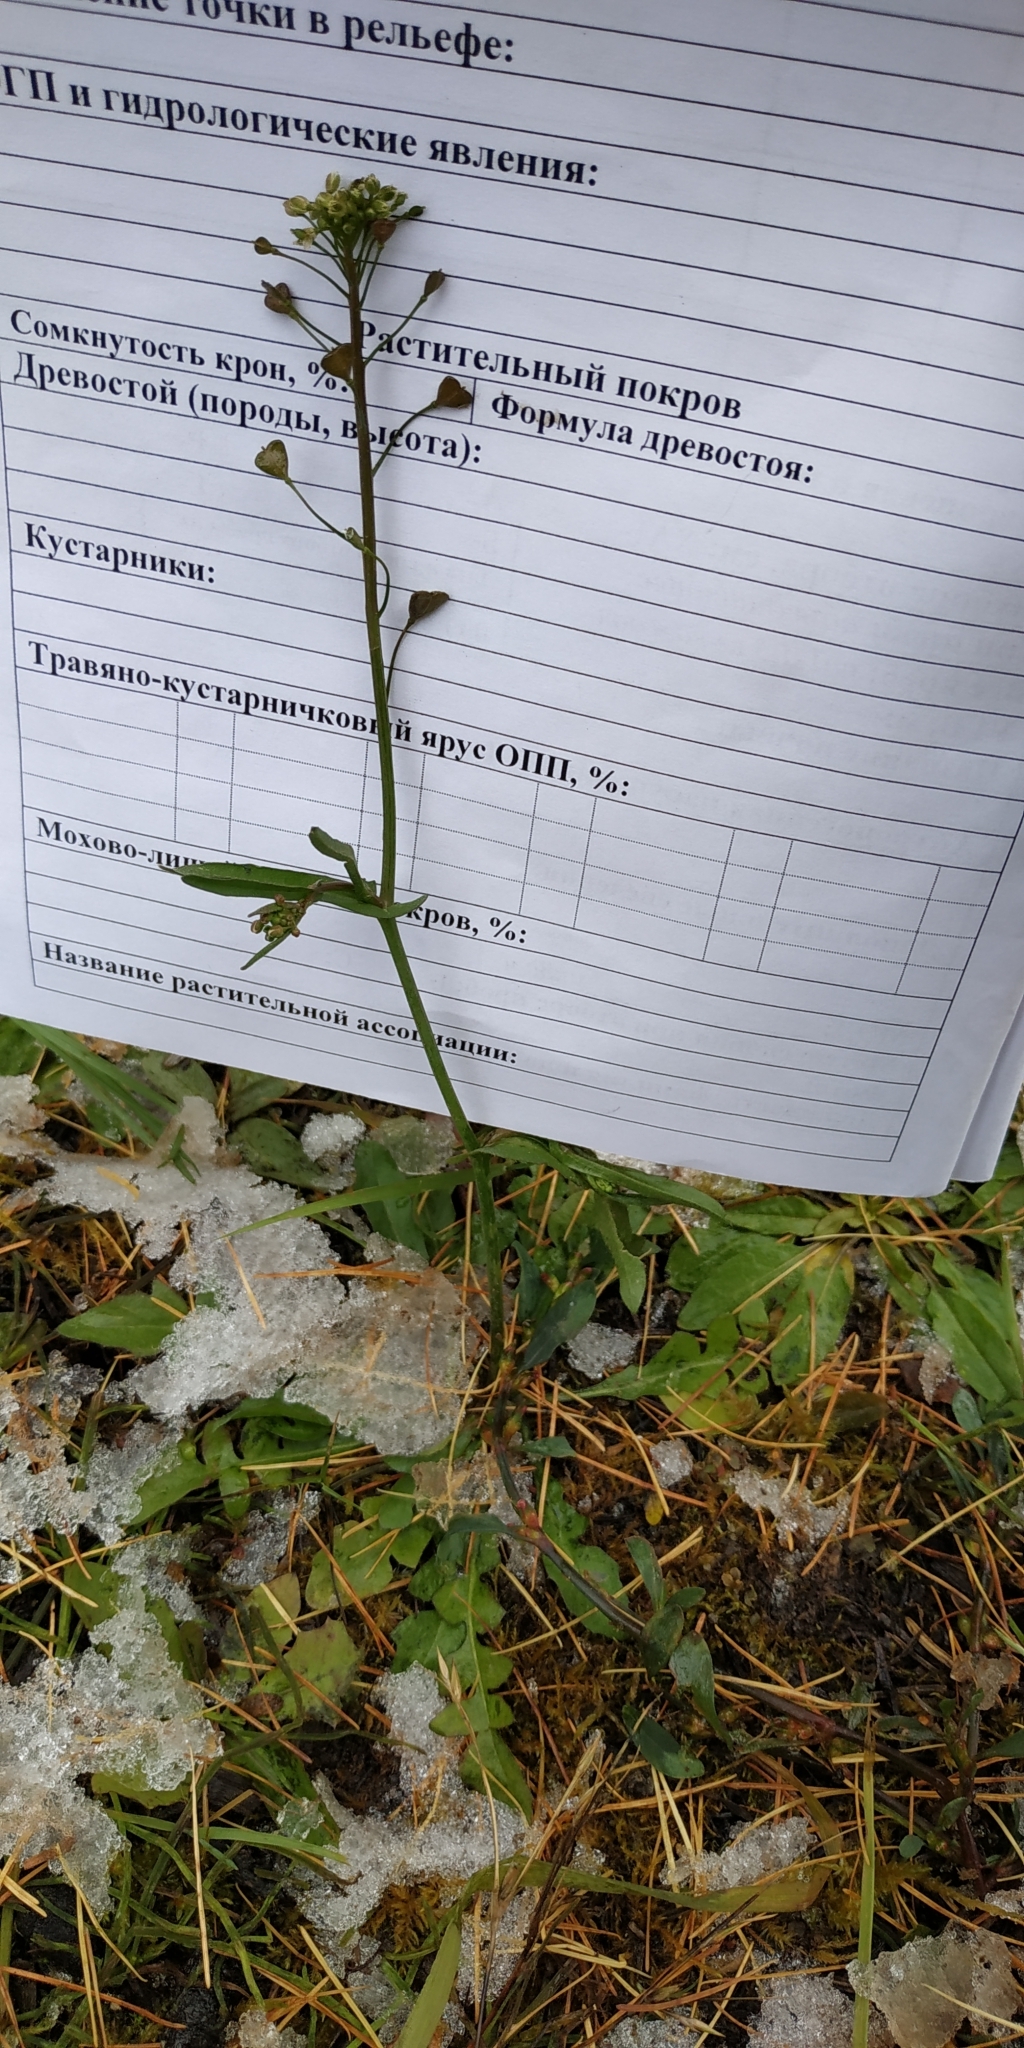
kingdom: Plantae
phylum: Tracheophyta
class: Magnoliopsida
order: Brassicales
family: Brassicaceae
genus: Capsella
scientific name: Capsella bursa-pastoris
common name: Shepherd's purse
